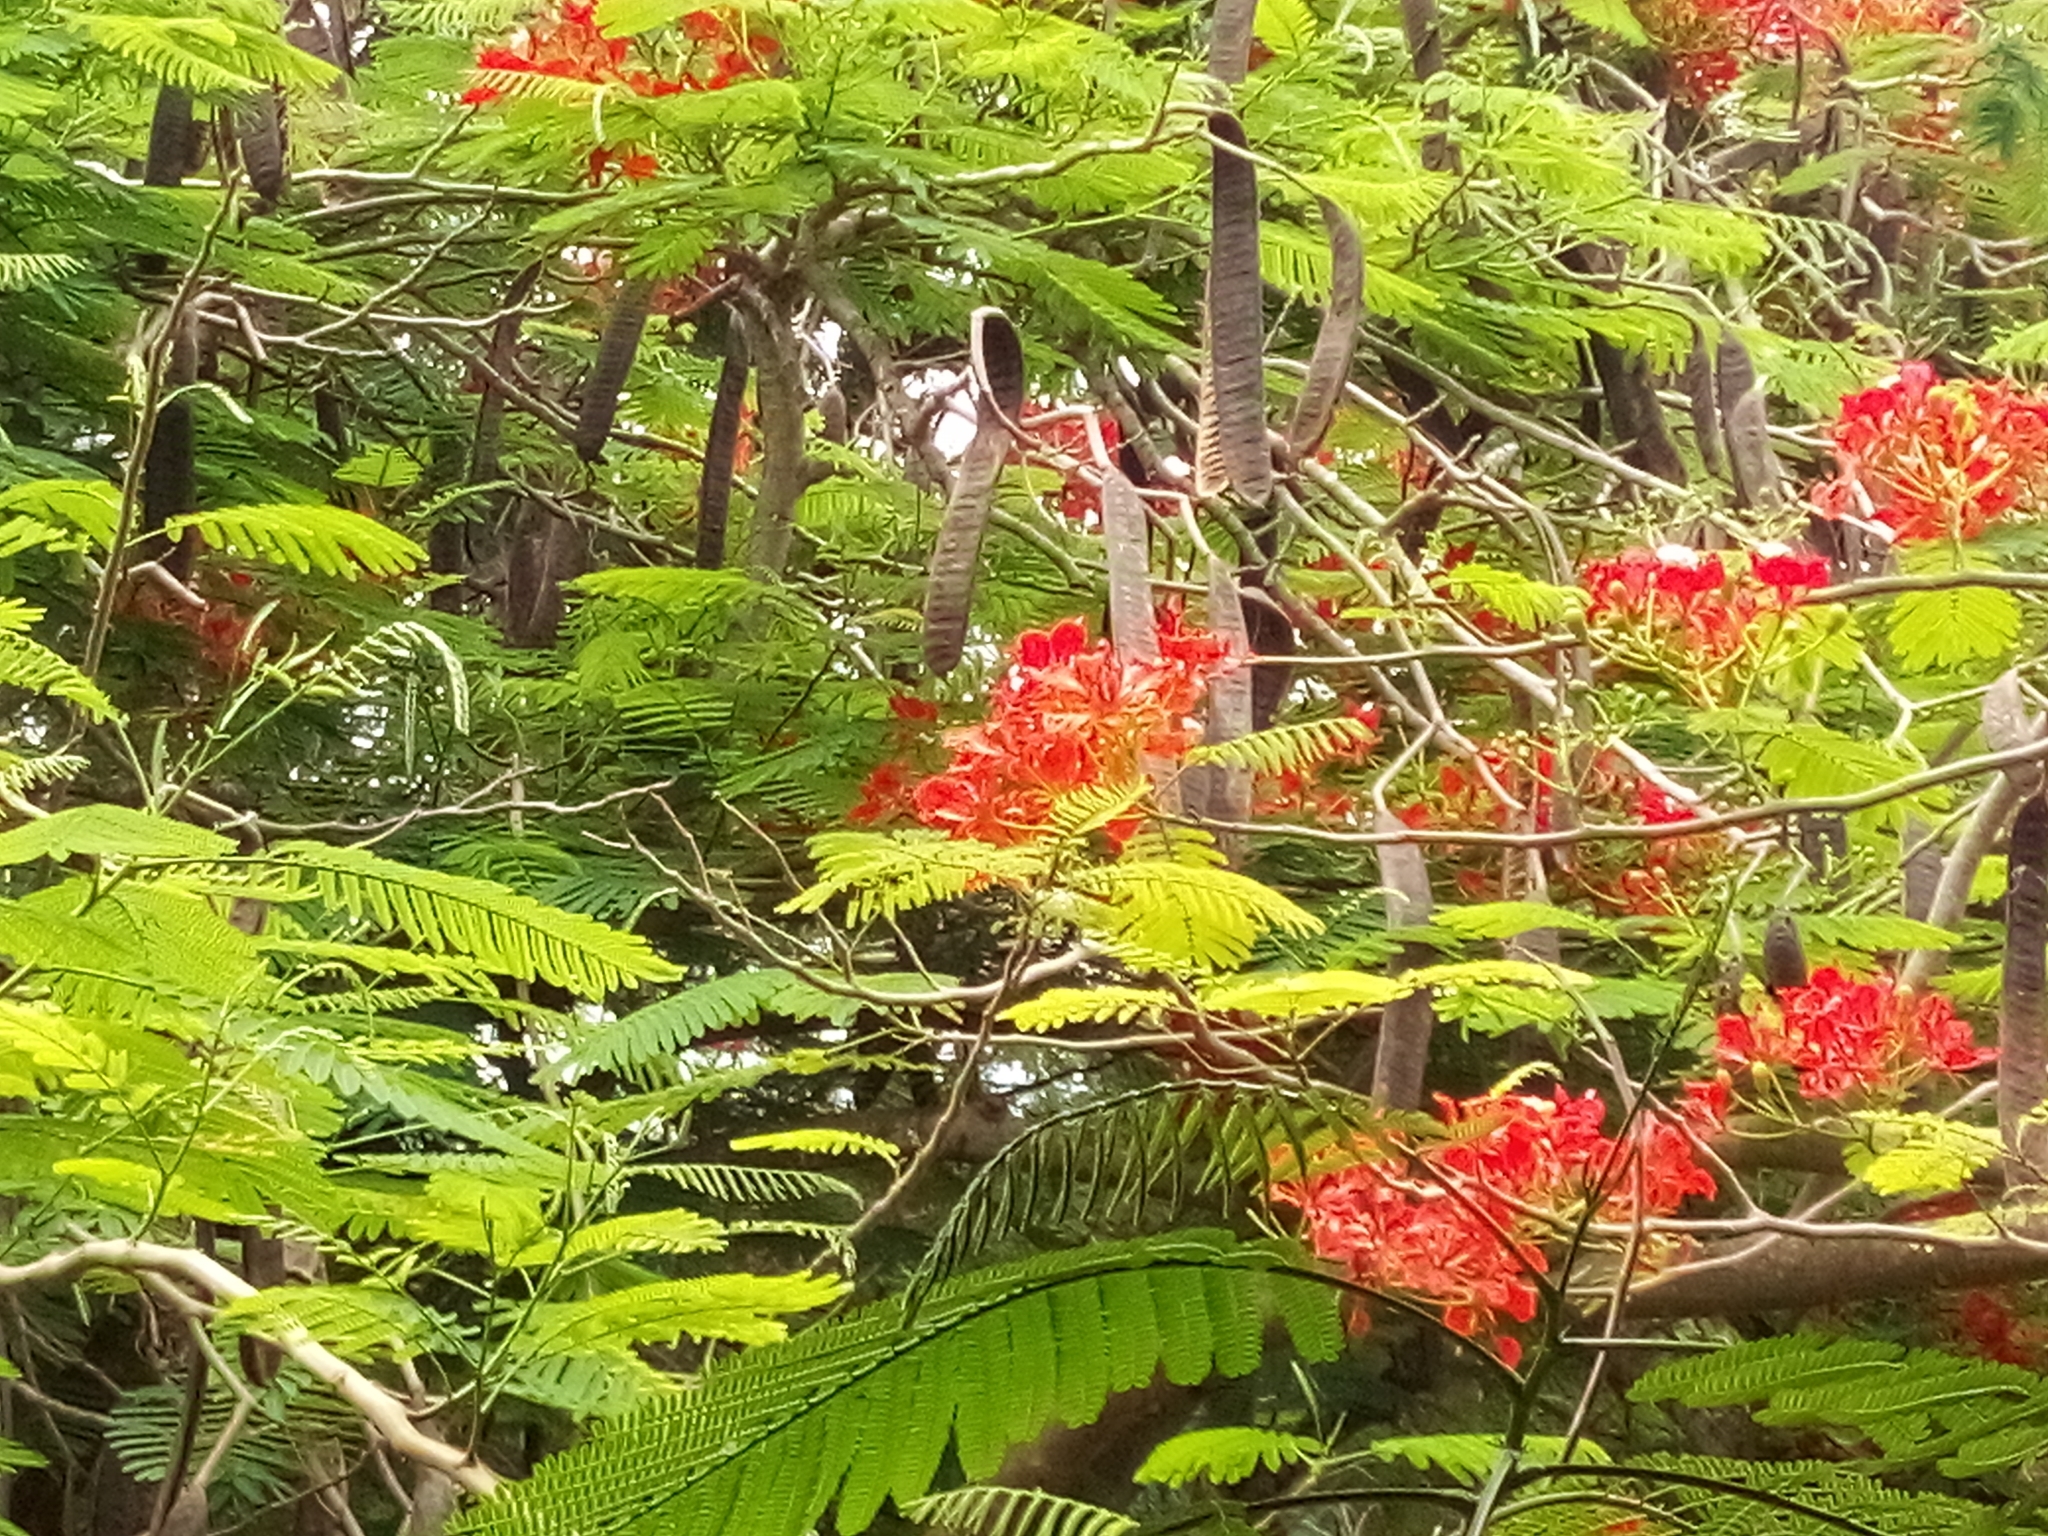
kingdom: Plantae
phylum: Tracheophyta
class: Magnoliopsida
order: Fabales
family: Fabaceae
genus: Delonix
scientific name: Delonix regia
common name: Royal poinciana
